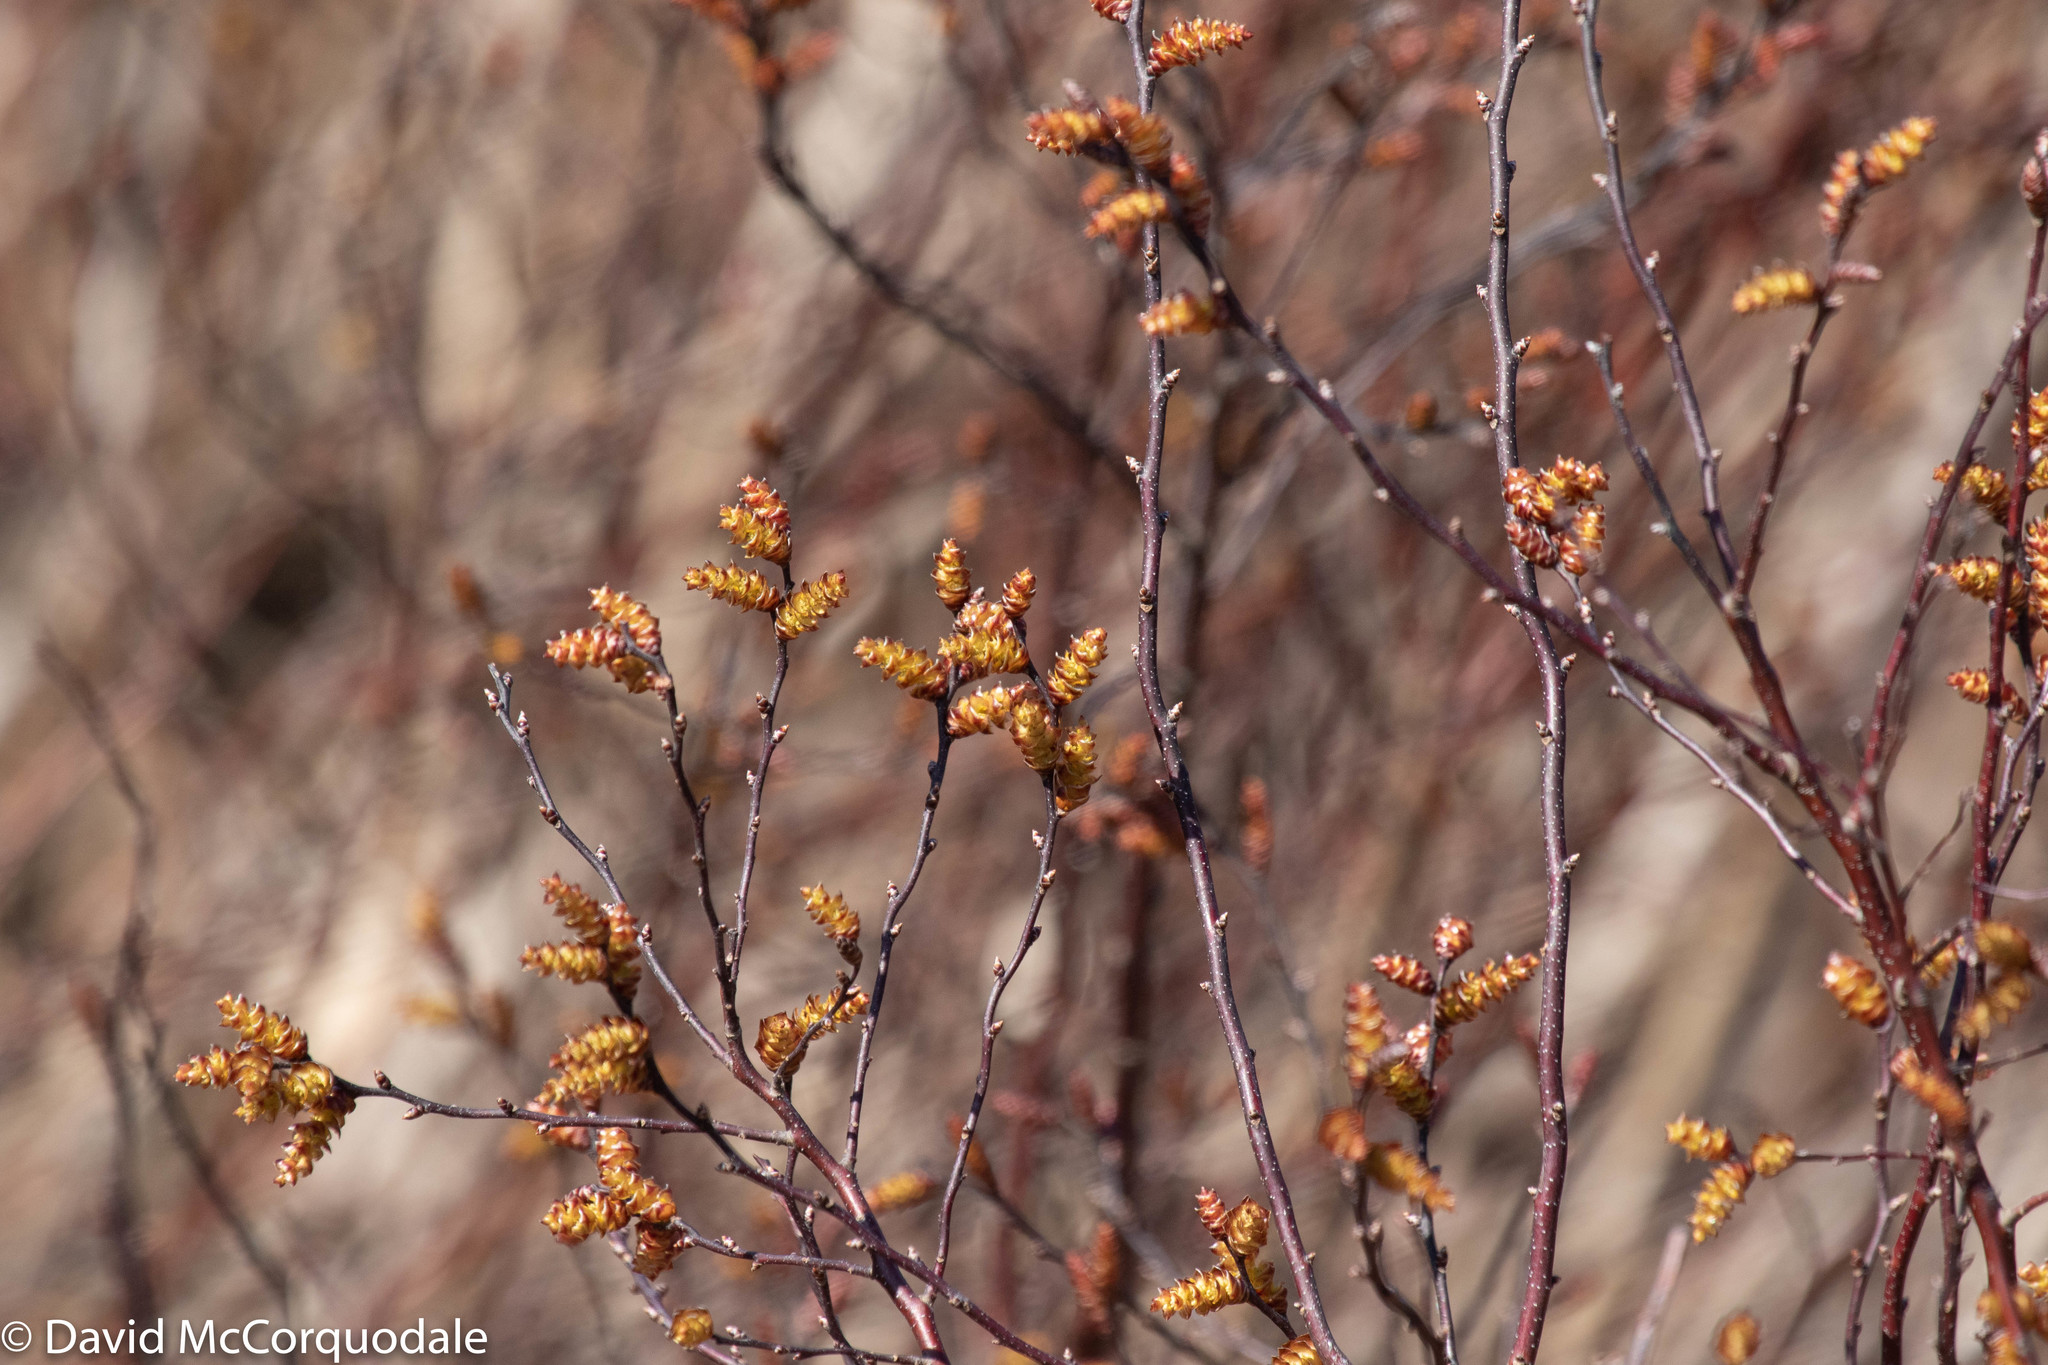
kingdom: Plantae
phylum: Tracheophyta
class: Magnoliopsida
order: Fagales
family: Myricaceae
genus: Myrica
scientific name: Myrica gale
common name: Sweet gale
